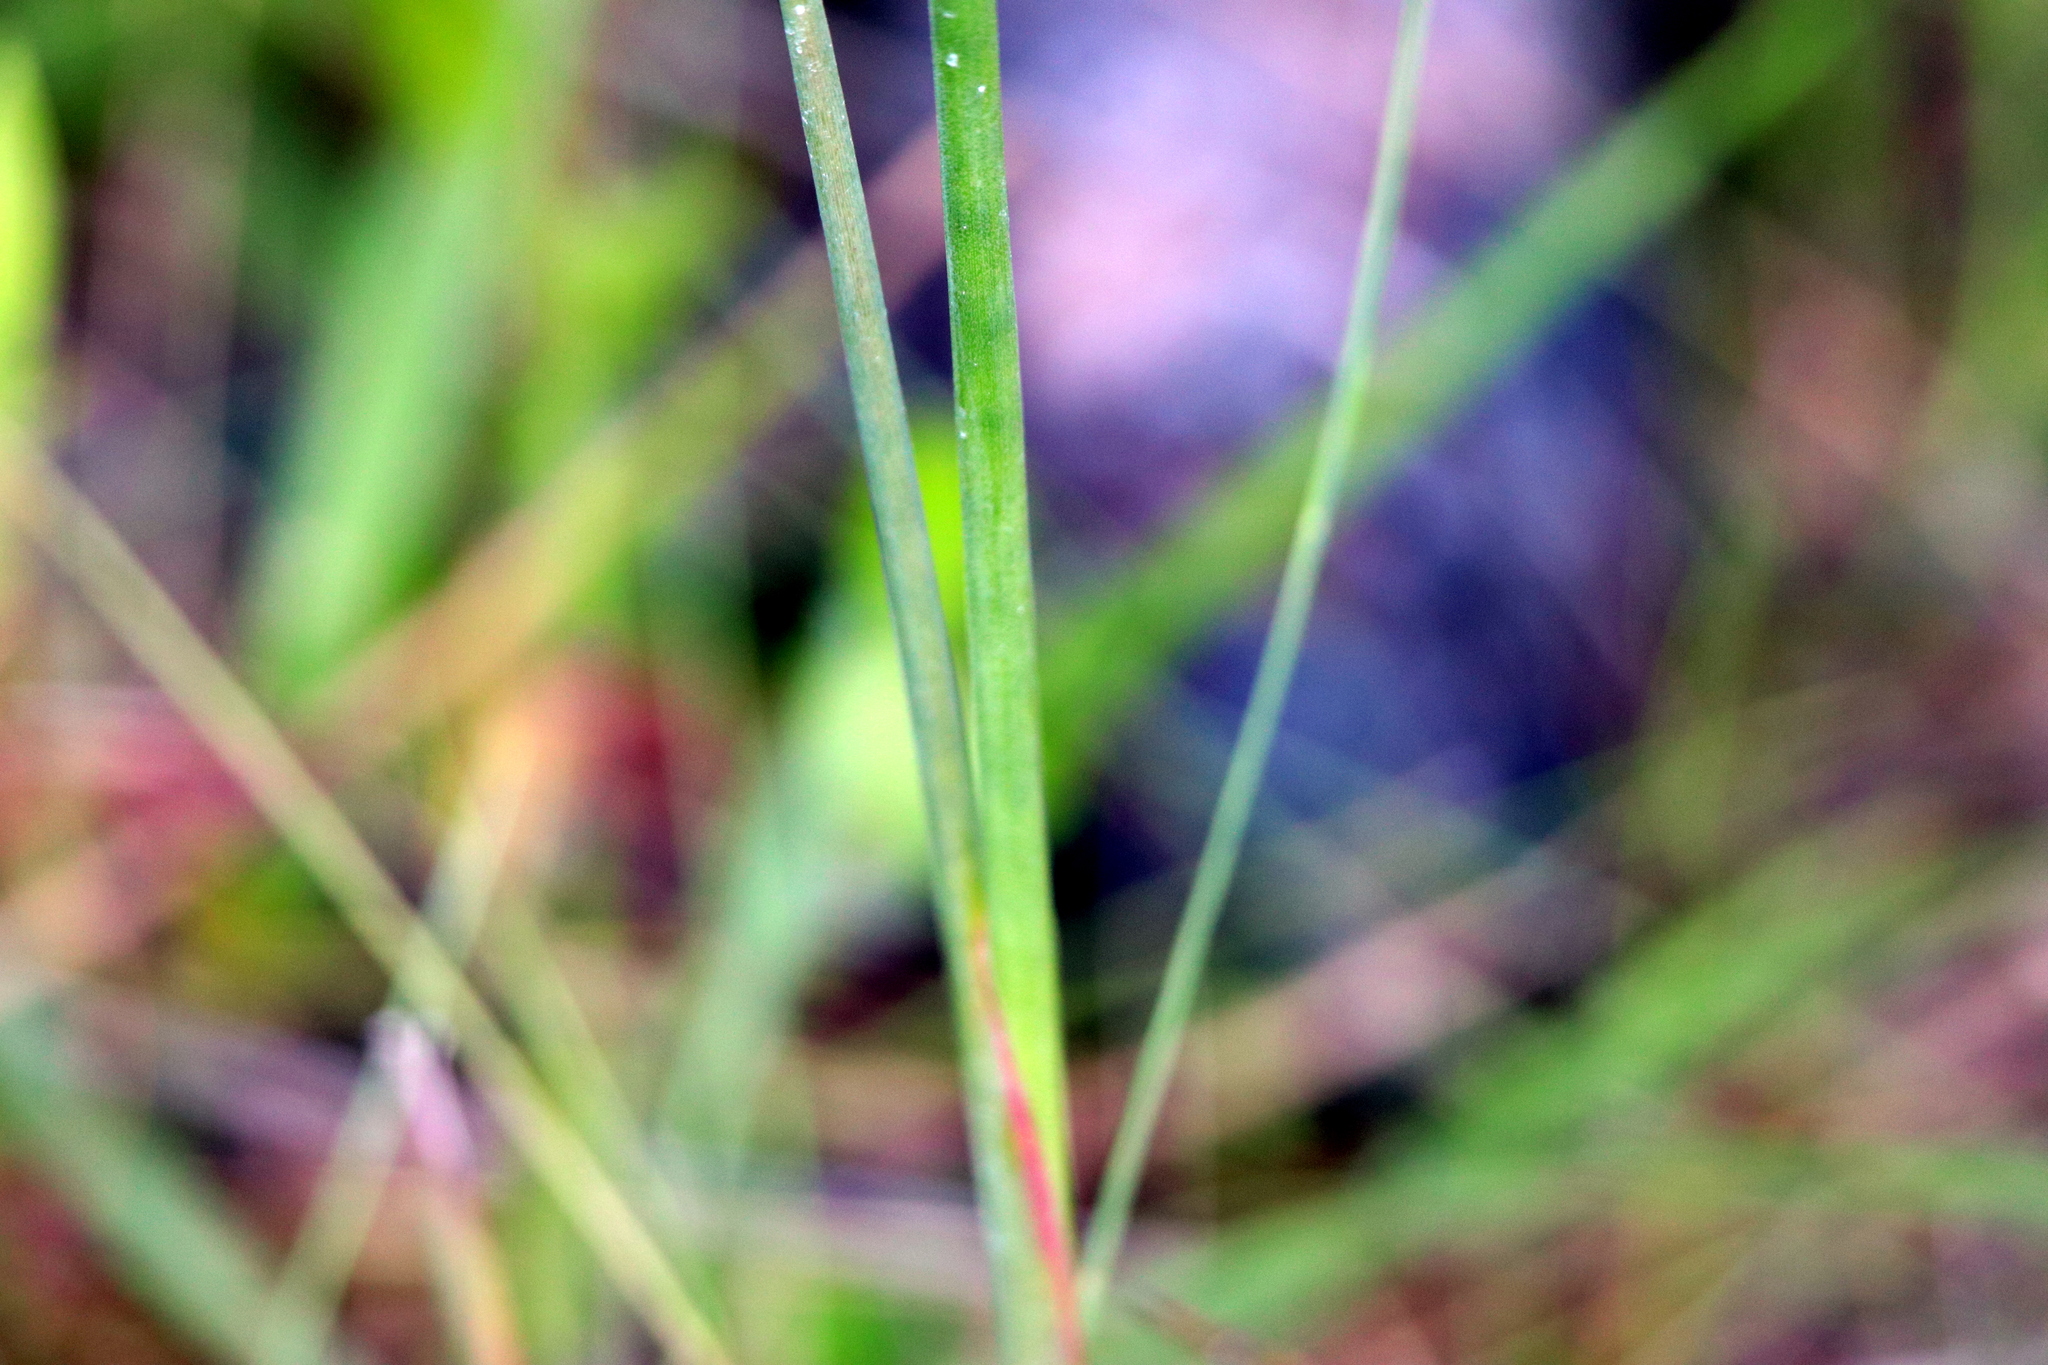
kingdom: Plantae
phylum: Tracheophyta
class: Liliopsida
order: Poales
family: Juncaceae
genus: Juncus
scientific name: Juncus megacephalus
